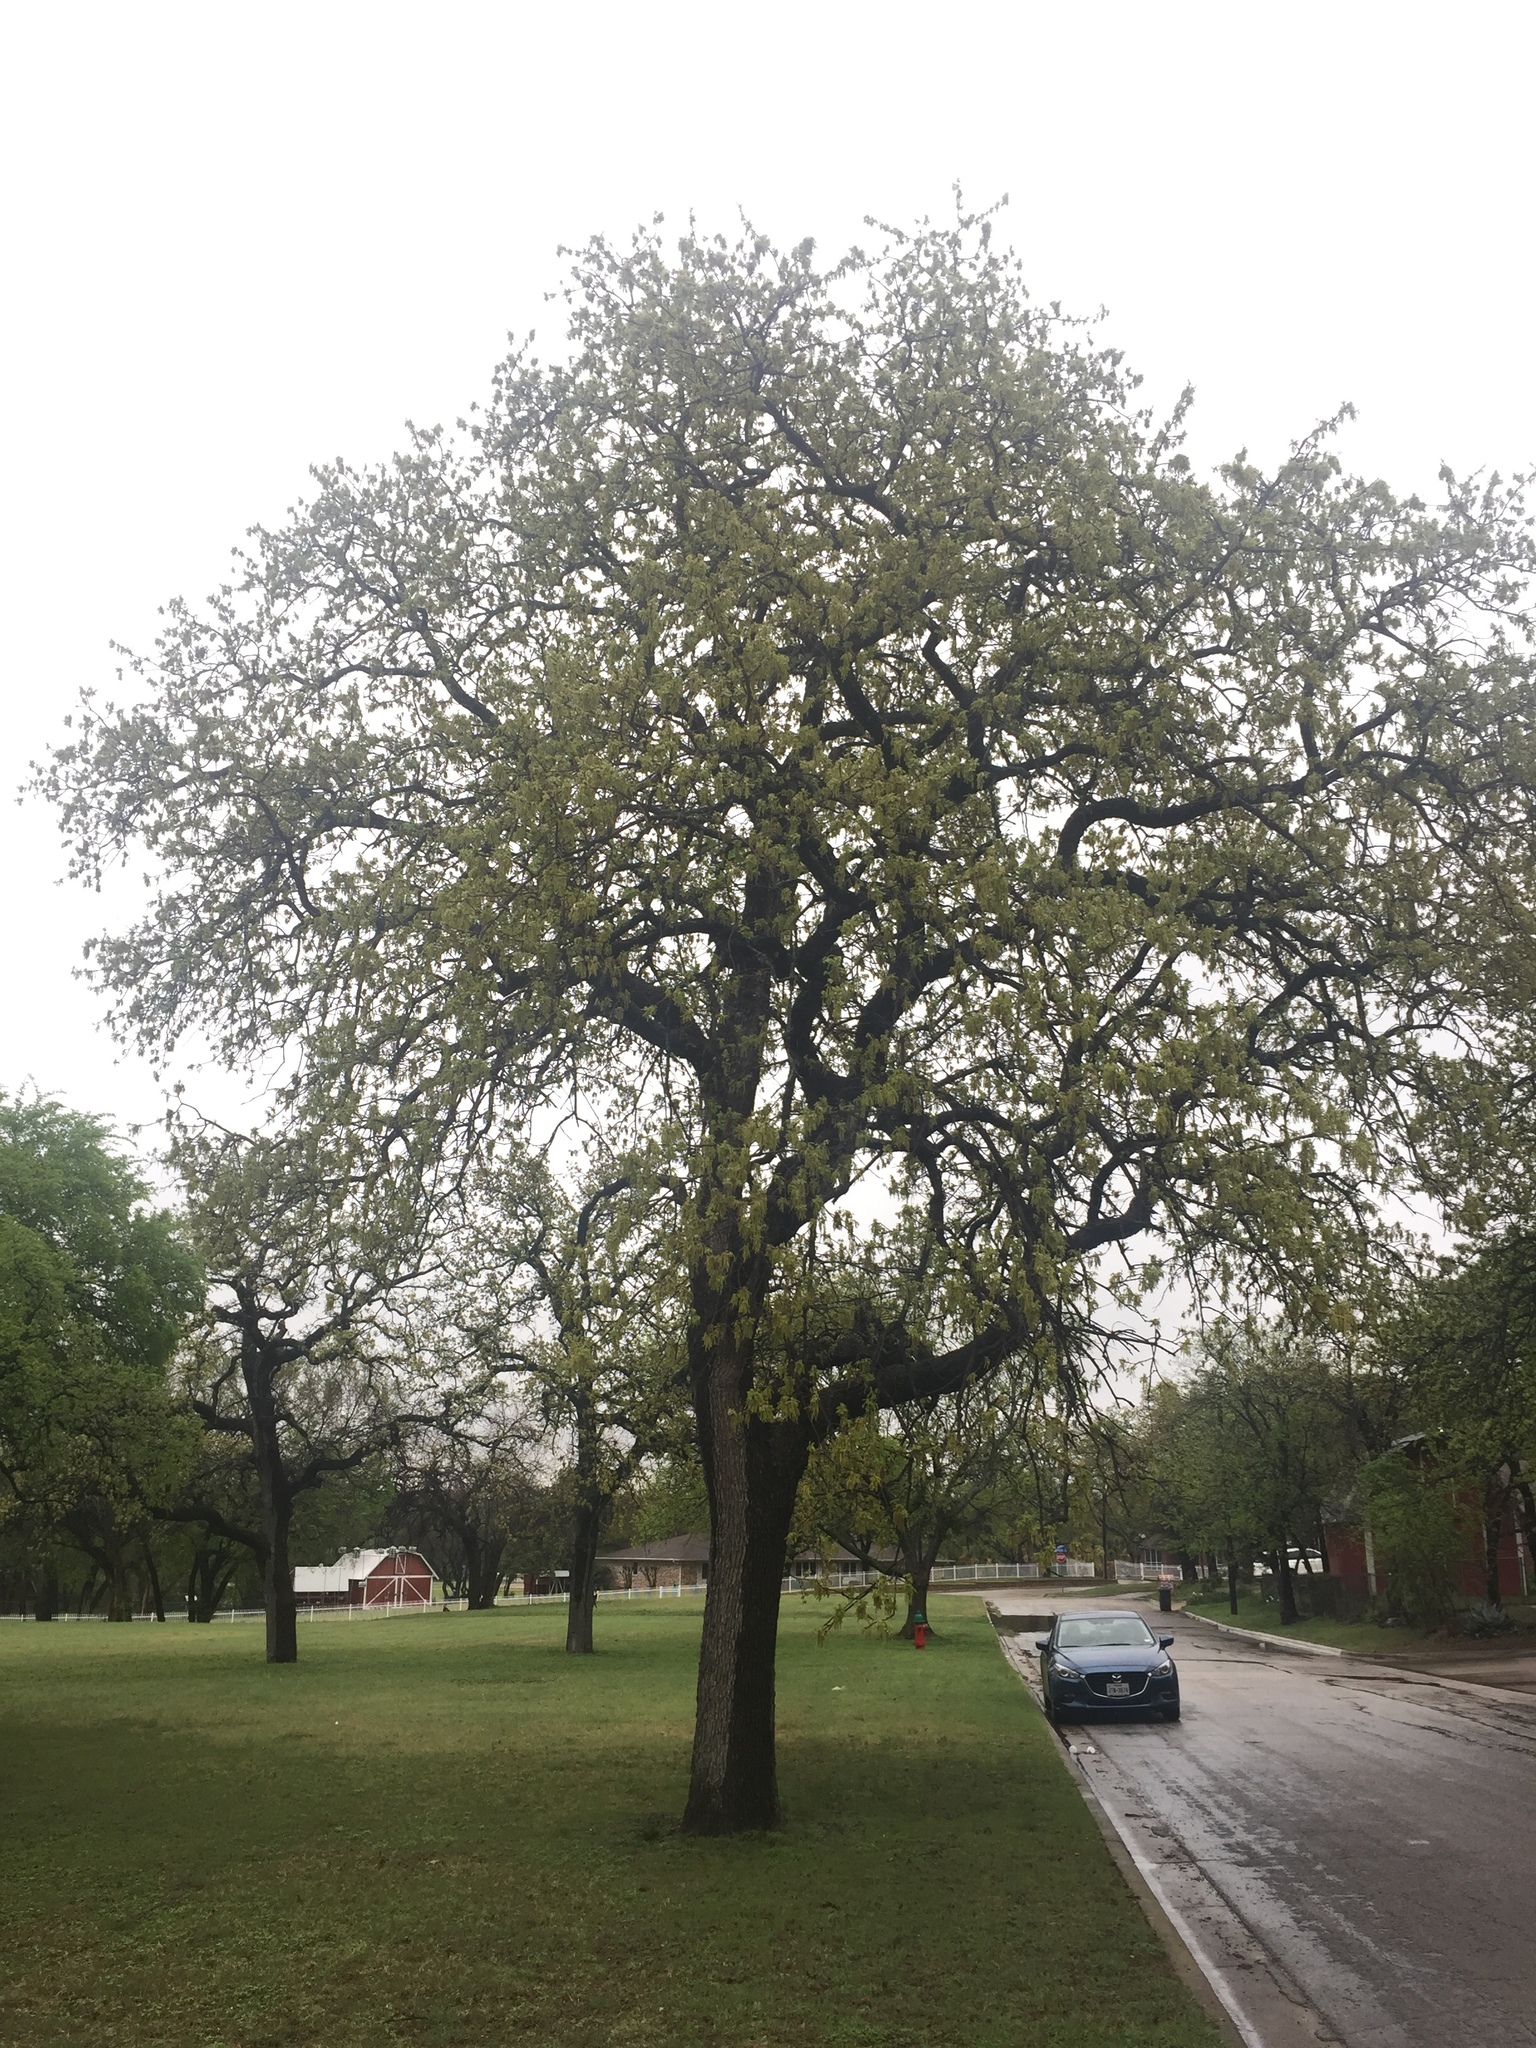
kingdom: Plantae
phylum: Tracheophyta
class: Magnoliopsida
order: Fagales
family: Fagaceae
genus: Quercus
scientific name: Quercus stellata
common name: Post oak
